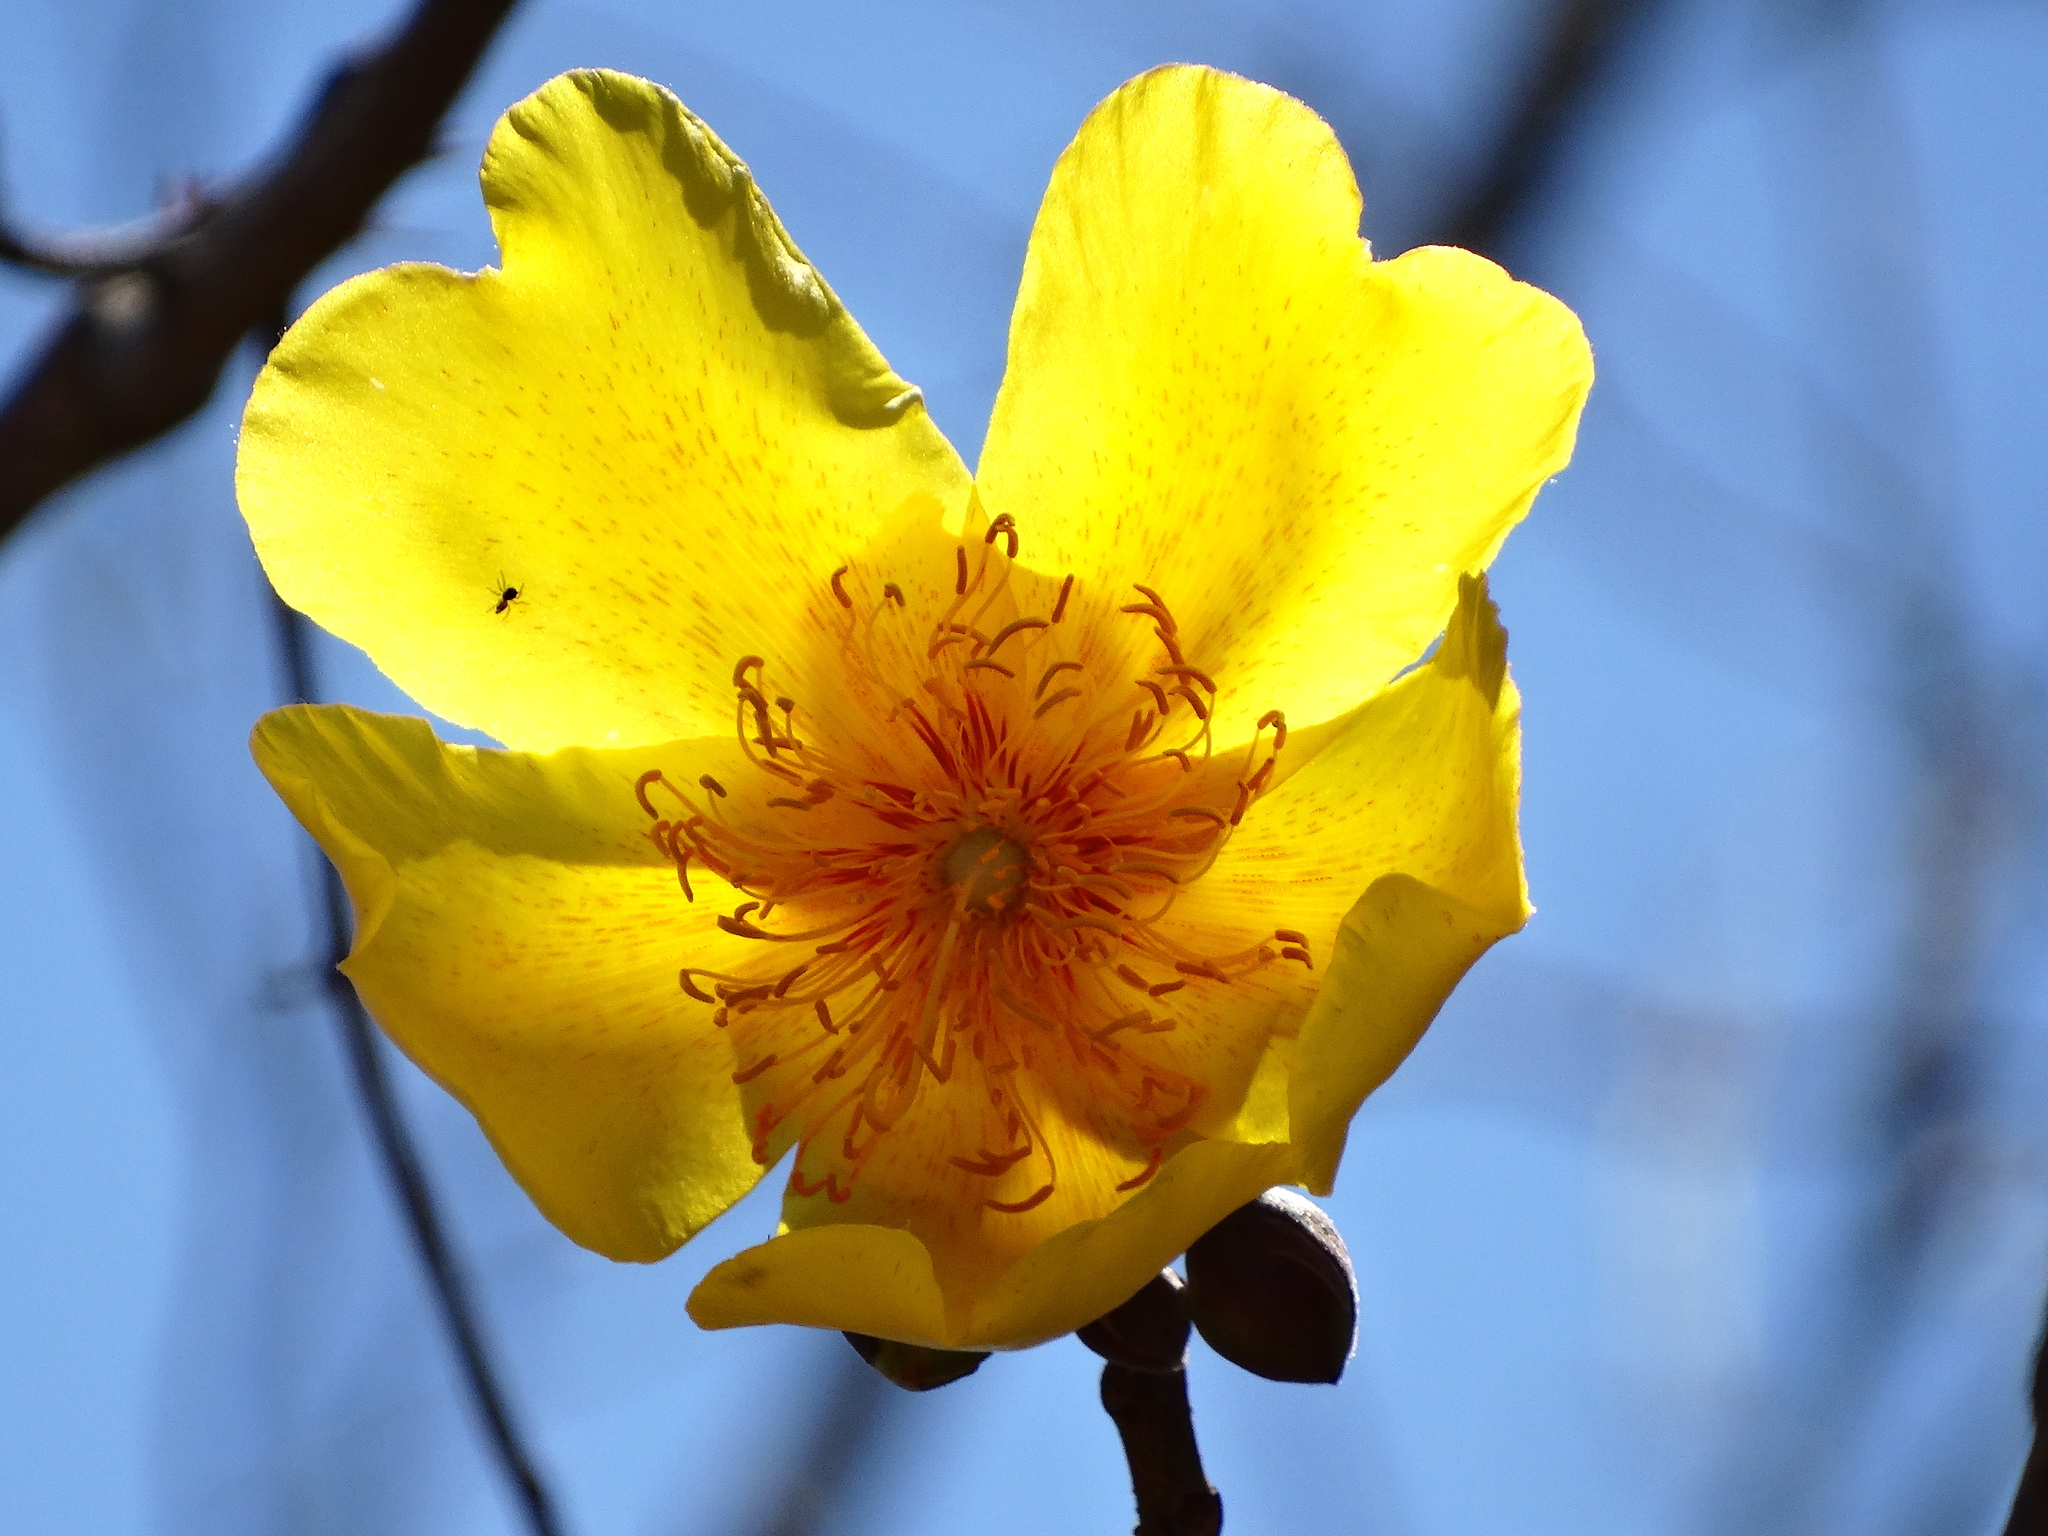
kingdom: Plantae
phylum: Tracheophyta
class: Magnoliopsida
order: Malvales
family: Cochlospermaceae
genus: Cochlospermum
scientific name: Cochlospermum vitifolium
